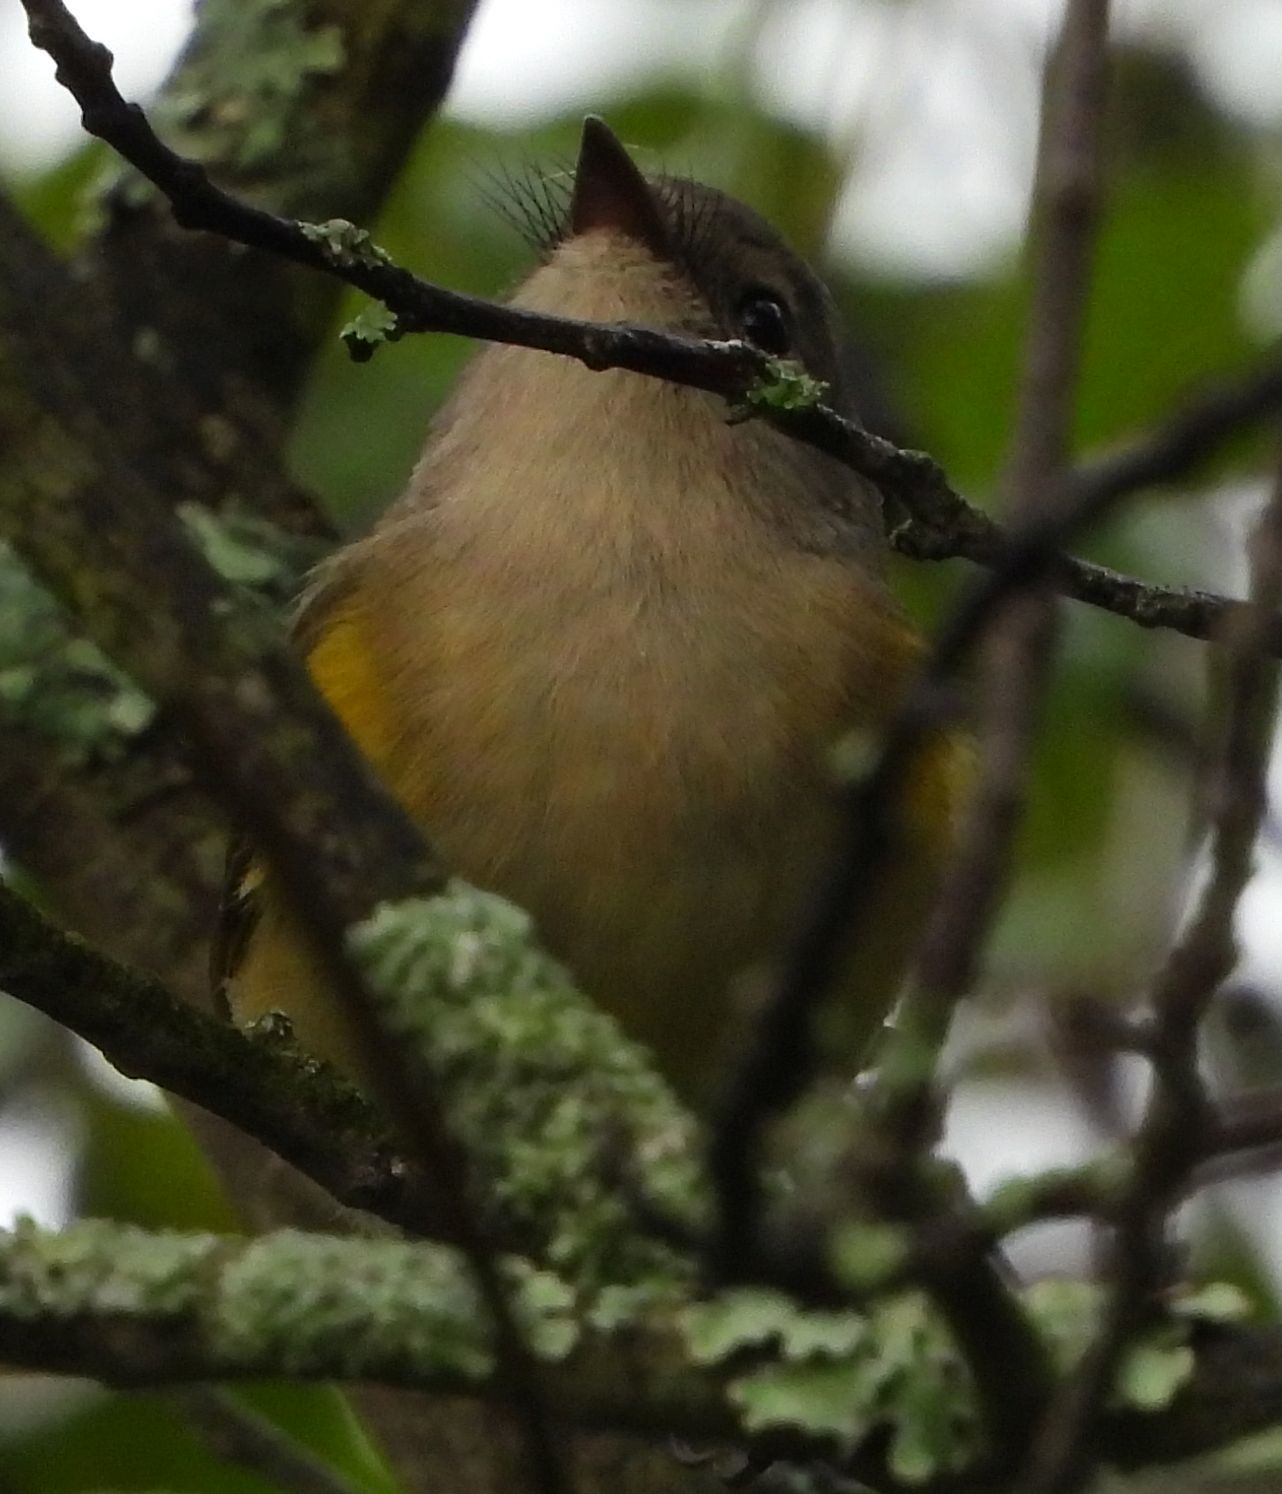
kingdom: Animalia
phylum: Chordata
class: Aves
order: Passeriformes
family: Parulidae
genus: Setophaga
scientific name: Setophaga ruticilla
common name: American redstart
